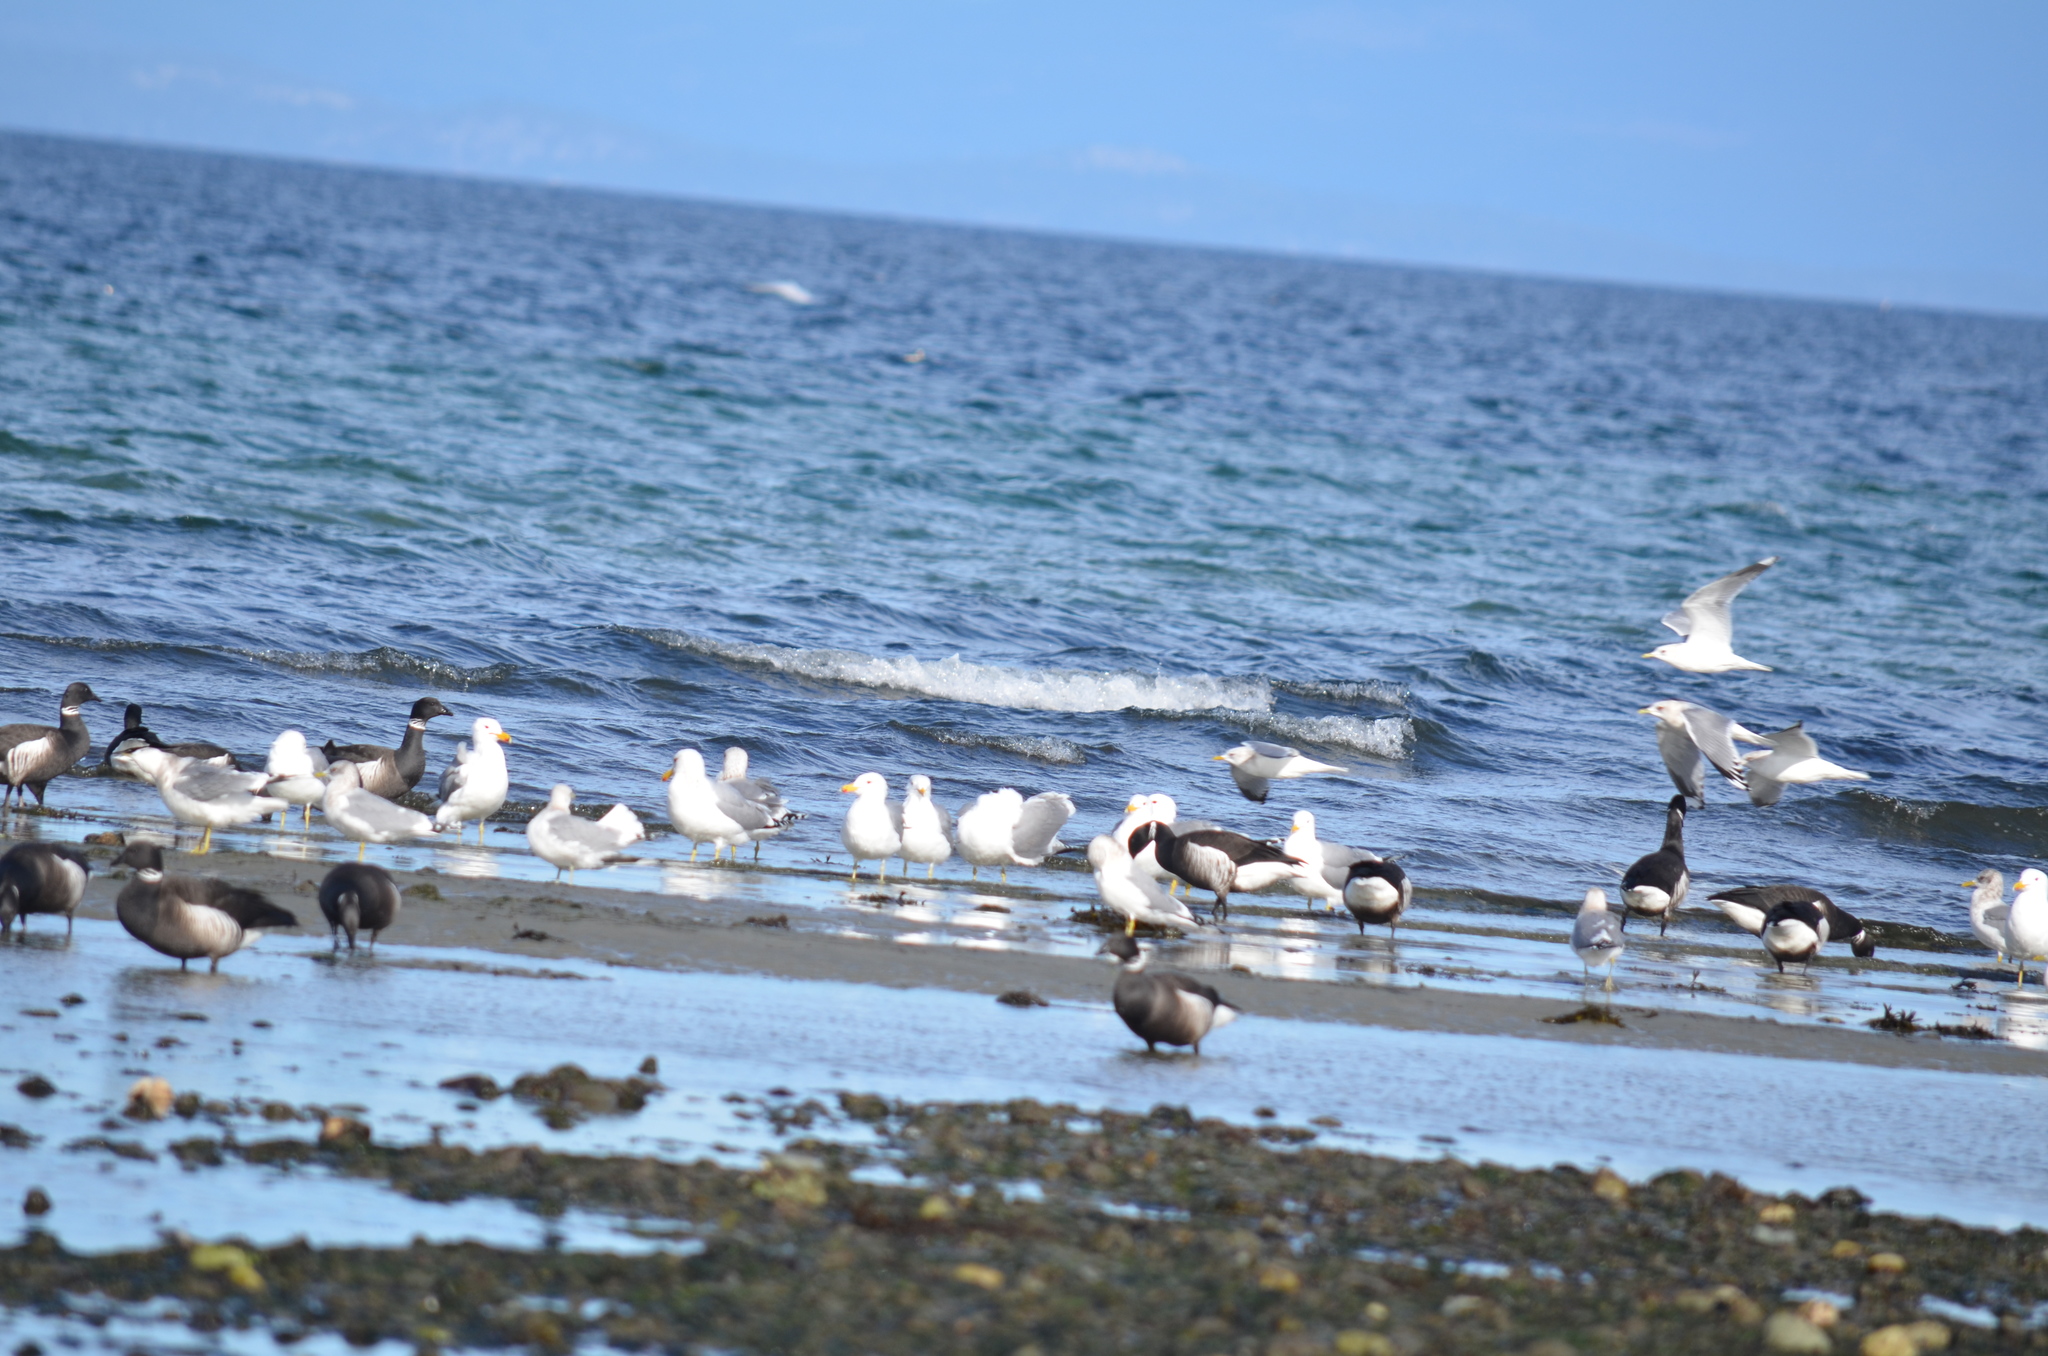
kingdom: Animalia
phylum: Chordata
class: Aves
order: Charadriiformes
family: Laridae
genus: Larus
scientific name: Larus californicus
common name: California gull
